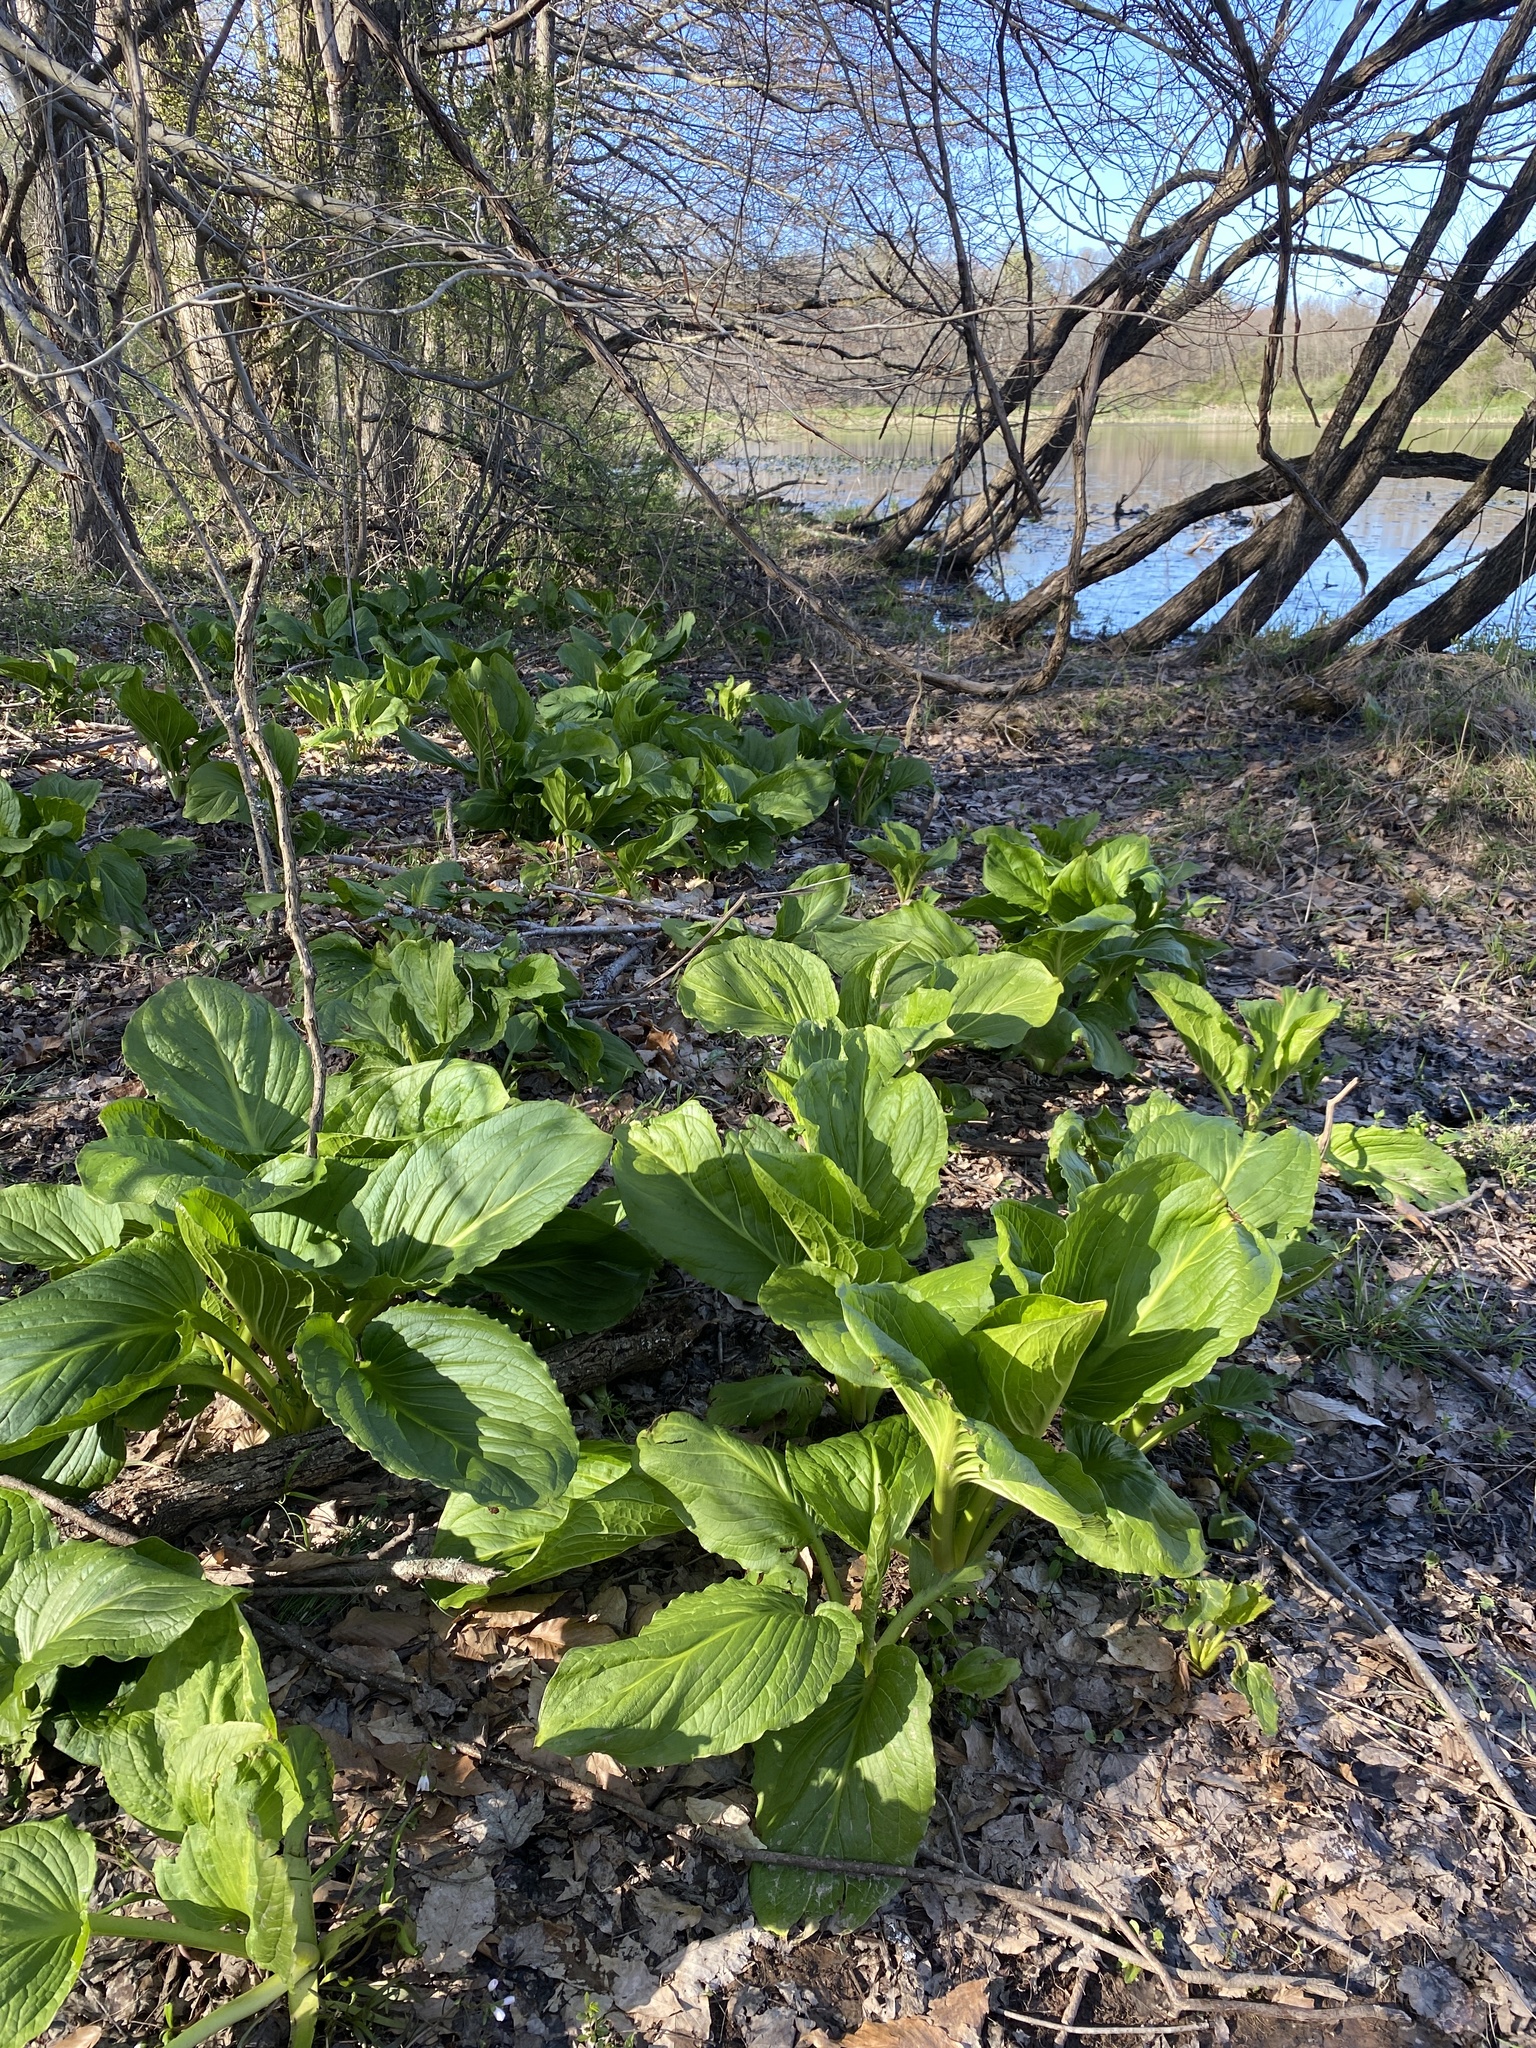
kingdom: Plantae
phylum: Tracheophyta
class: Liliopsida
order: Alismatales
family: Araceae
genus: Symplocarpus
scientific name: Symplocarpus foetidus
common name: Eastern skunk cabbage
